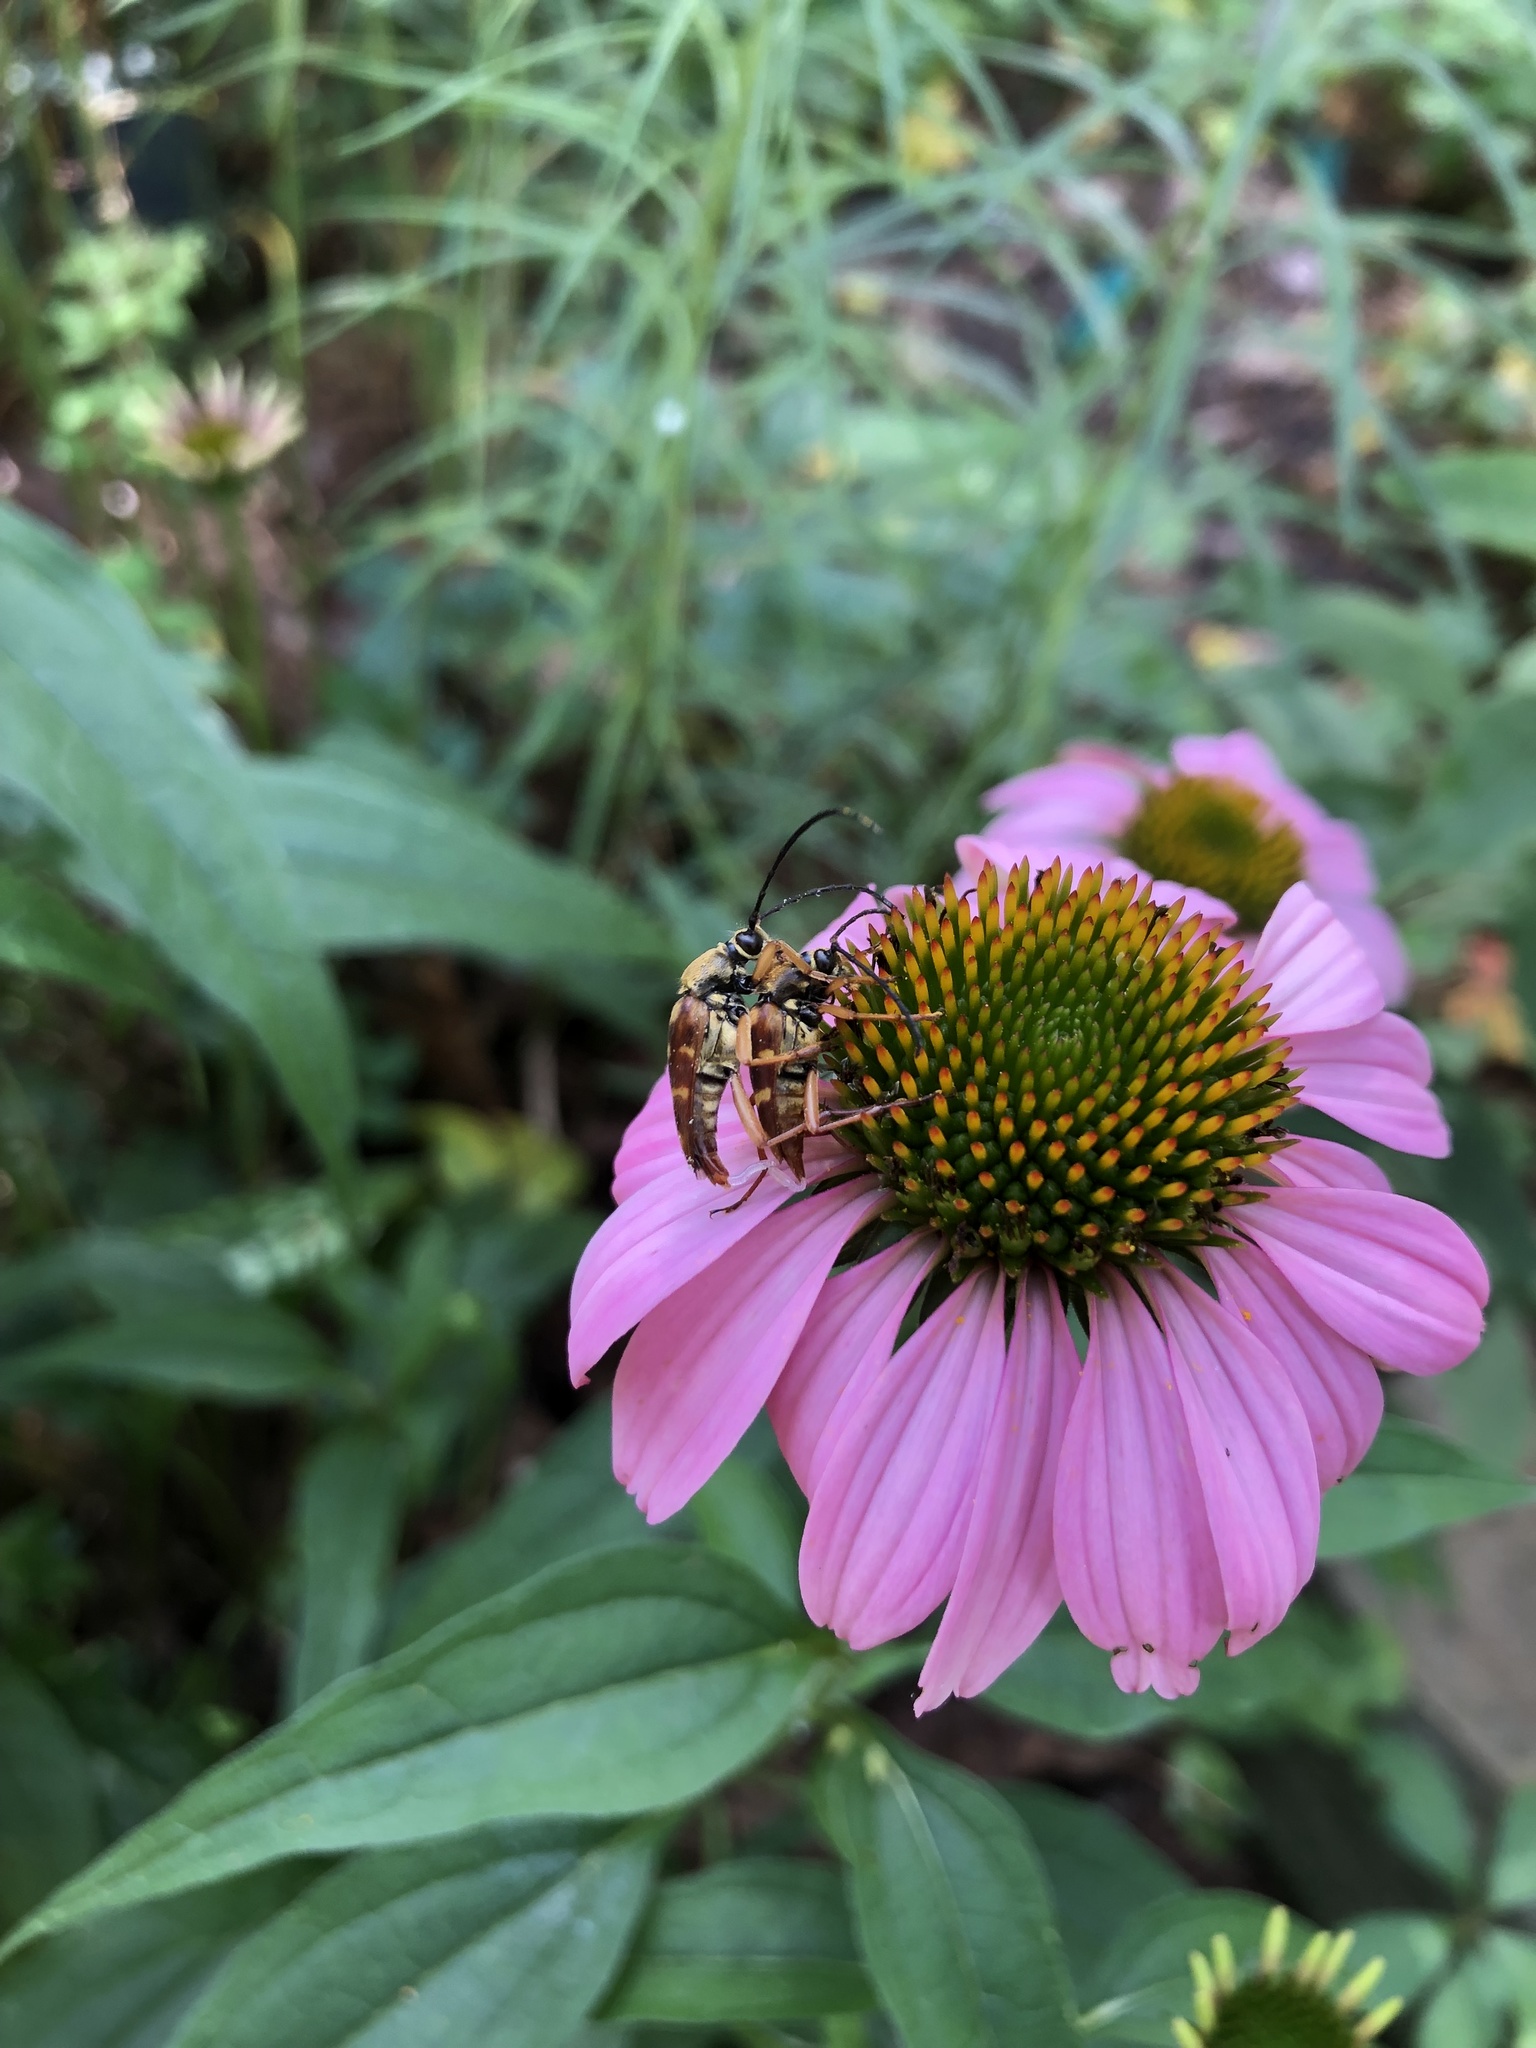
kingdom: Animalia
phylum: Arthropoda
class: Insecta
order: Coleoptera
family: Cerambycidae
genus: Typocerus
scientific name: Typocerus velutinus
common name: Banded longhorn beetle
